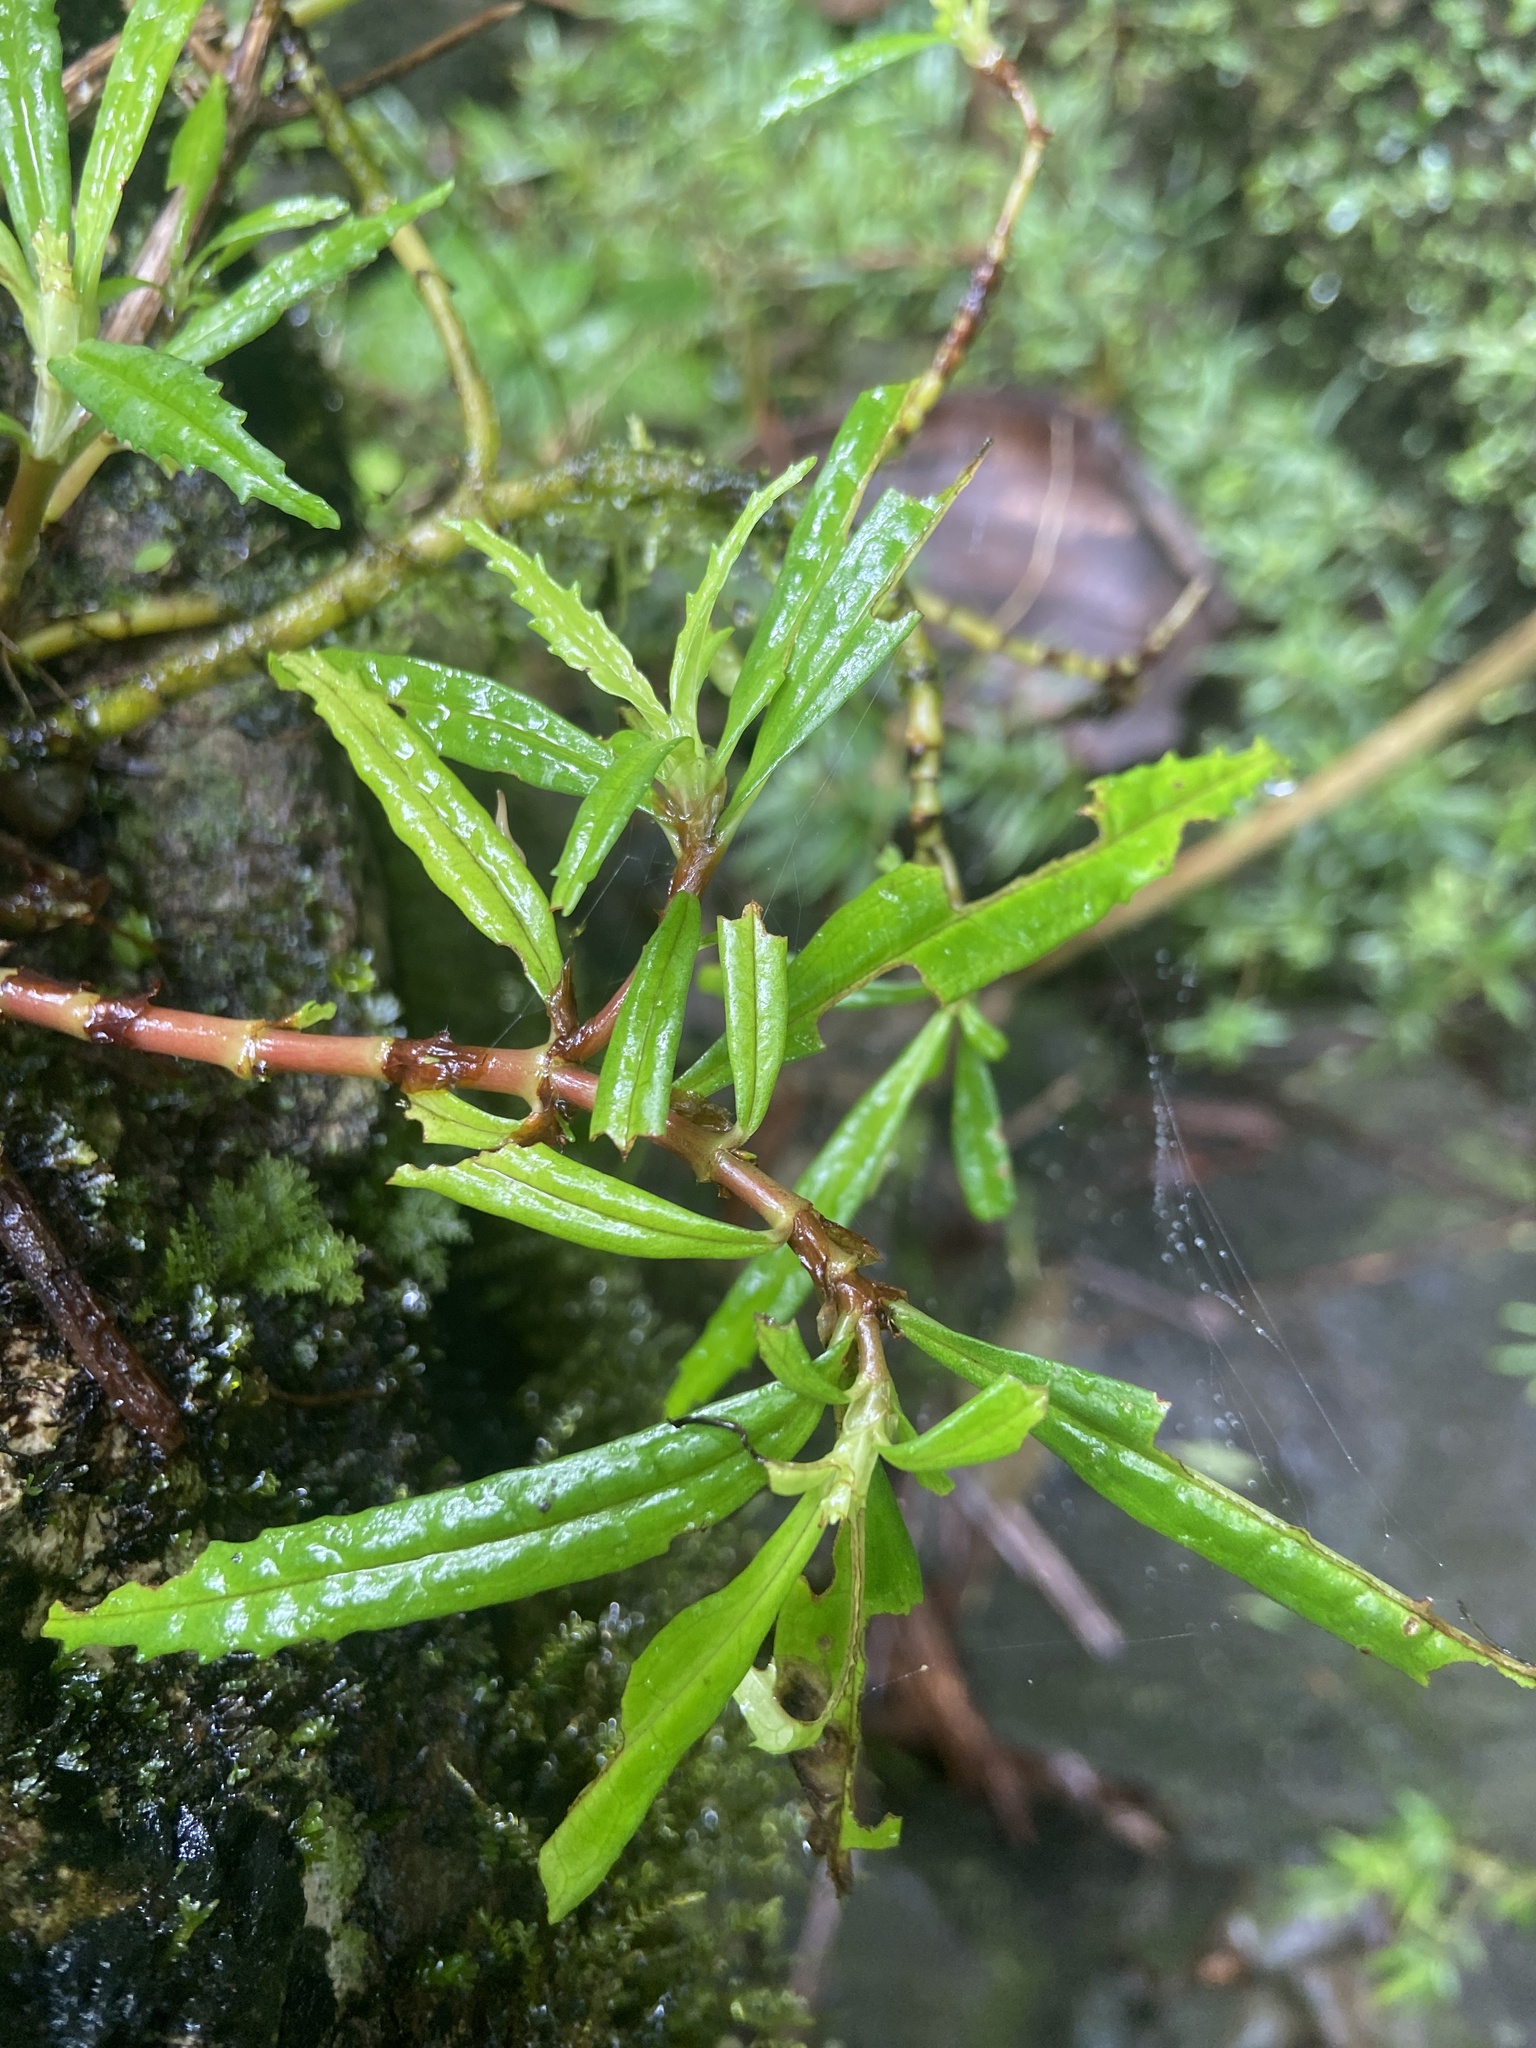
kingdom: Plantae
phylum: Tracheophyta
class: Magnoliopsida
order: Rosales
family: Urticaceae
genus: Pilea
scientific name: Pilea semidentata
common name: Cliffside clearweed
